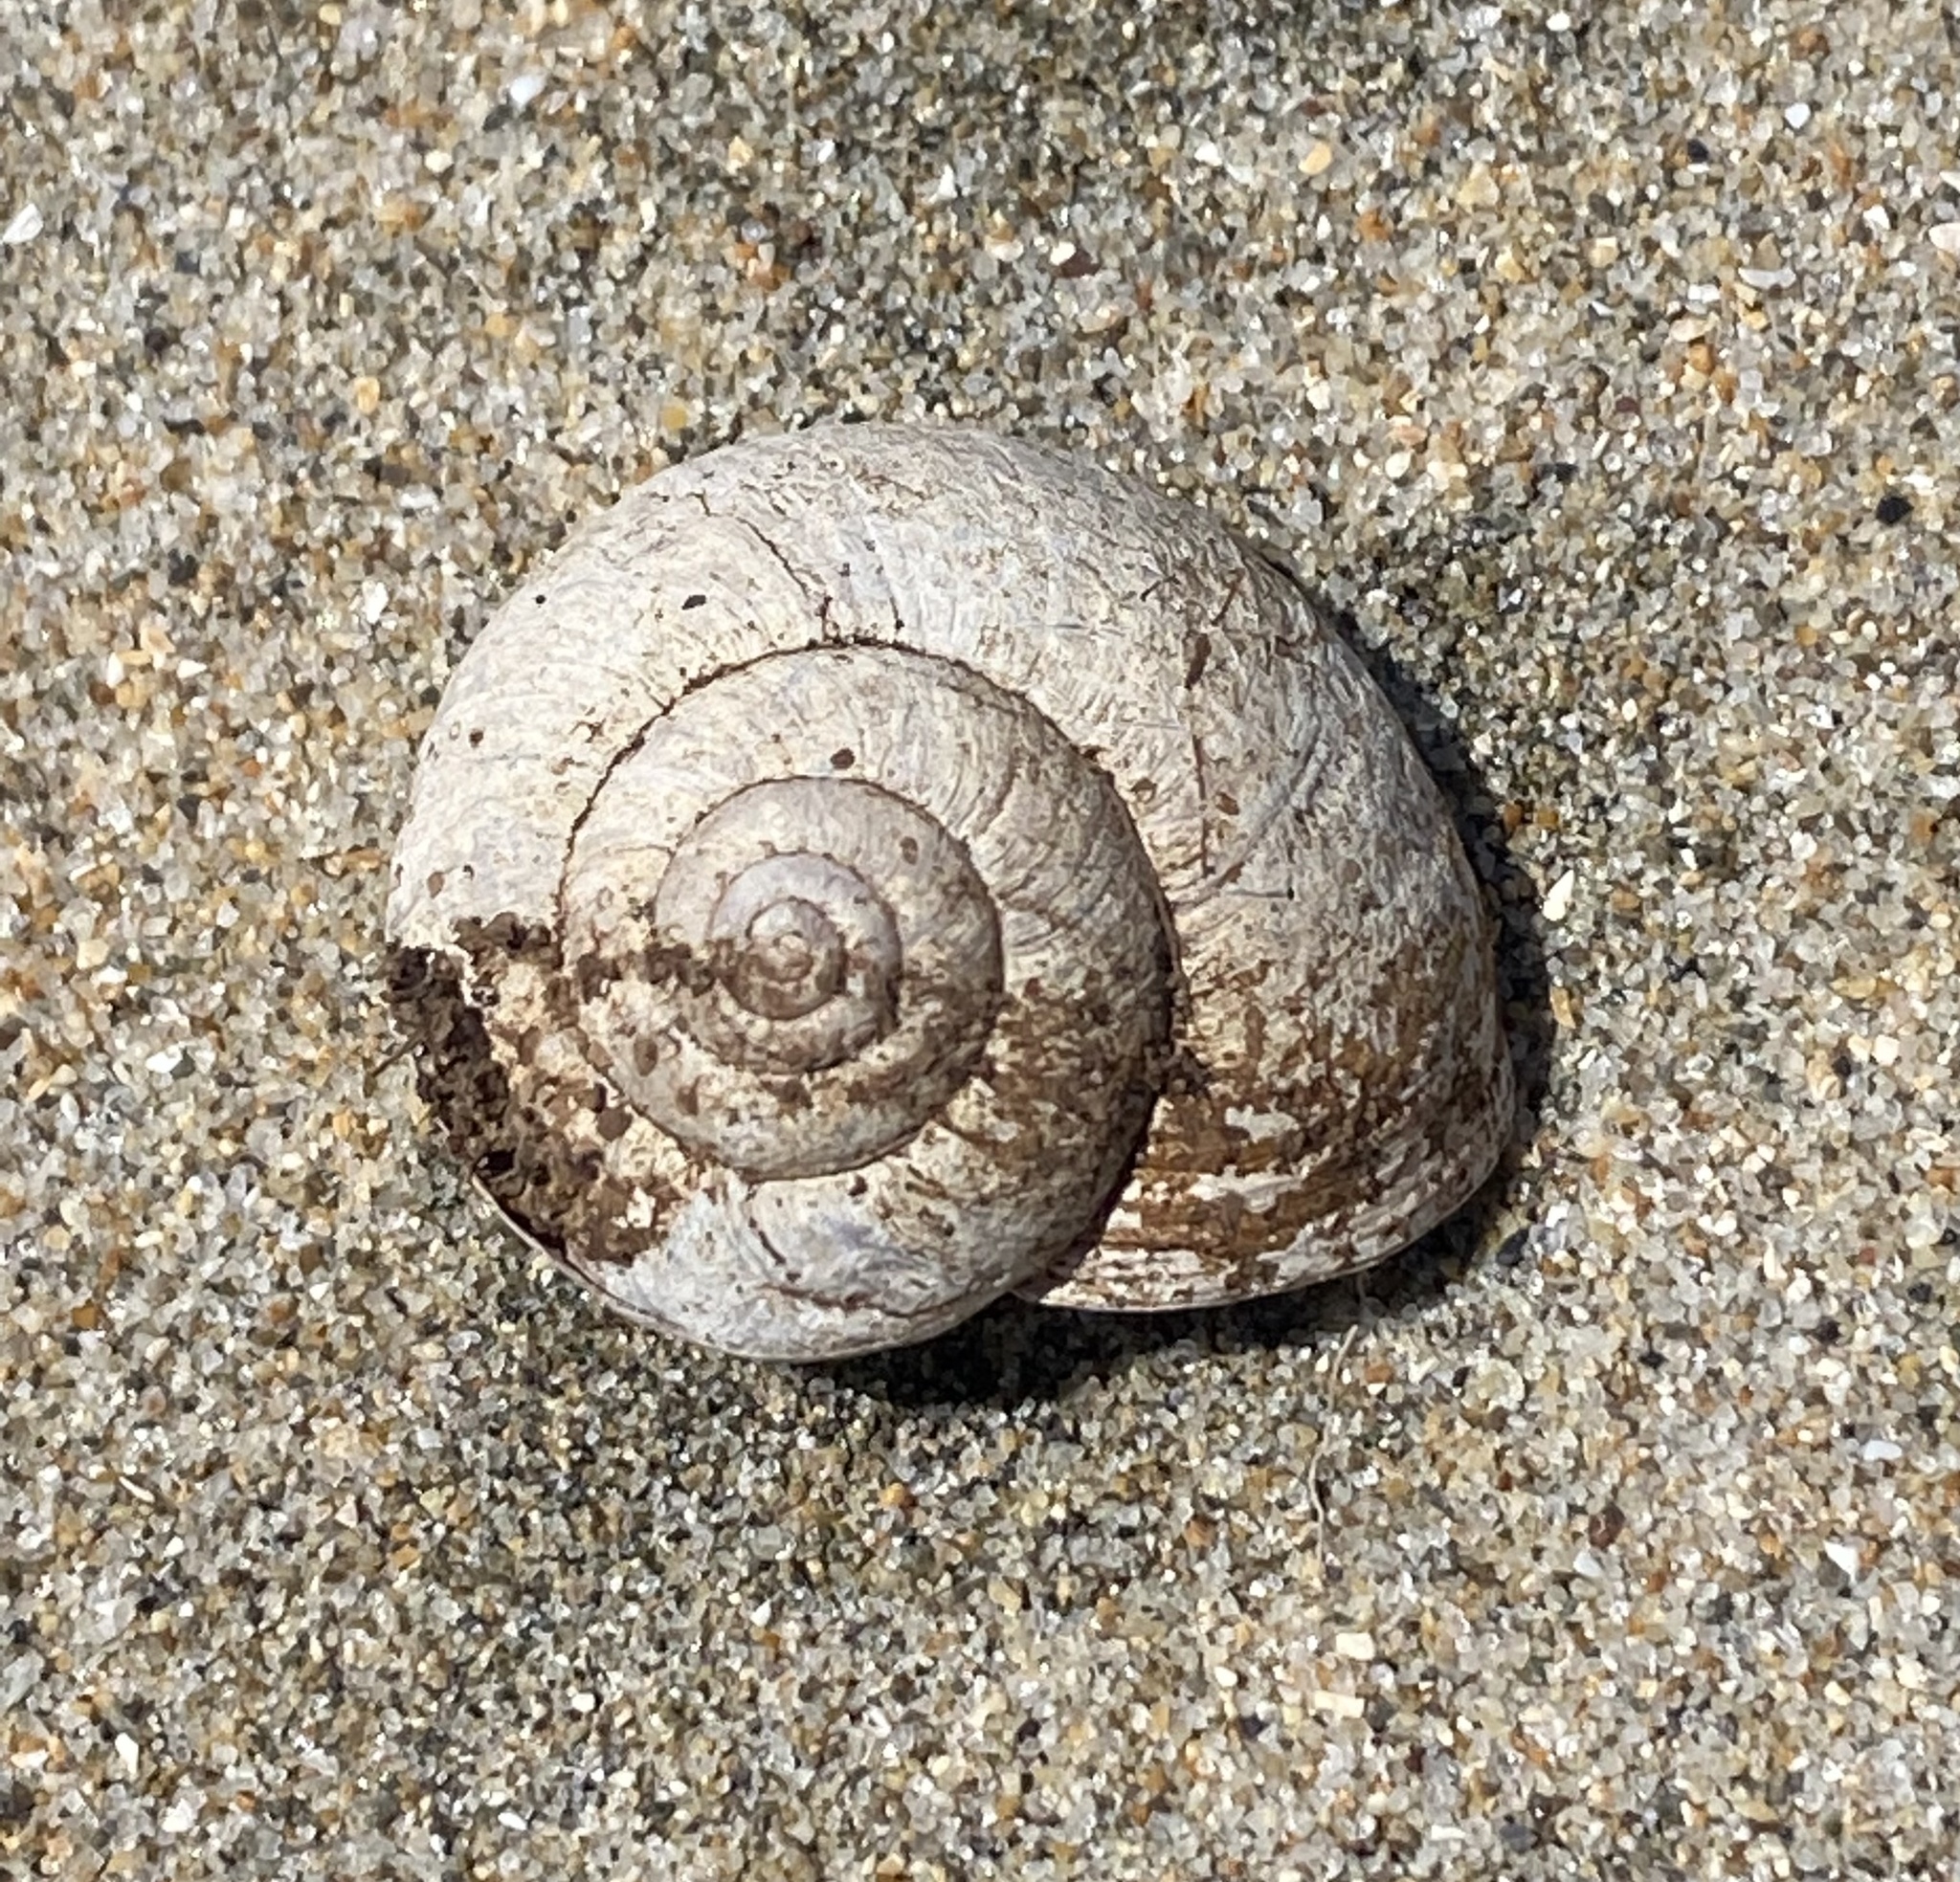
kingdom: Animalia
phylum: Mollusca
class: Gastropoda
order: Stylommatophora
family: Xanthonychidae
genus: Helminthoglypta
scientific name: Helminthoglypta nickliniana
